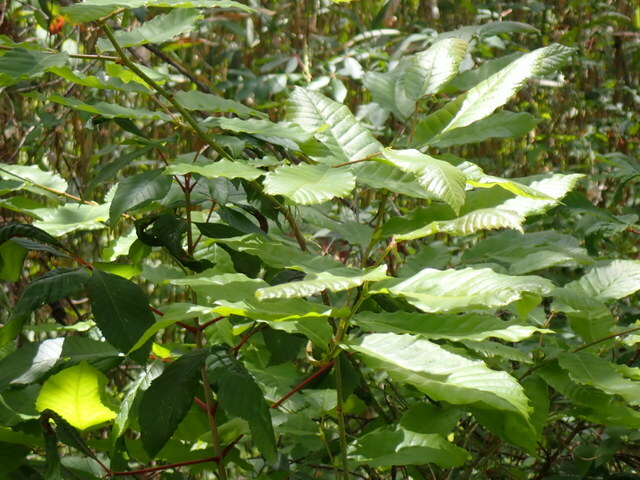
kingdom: Plantae
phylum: Tracheophyta
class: Magnoliopsida
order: Fagales
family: Fagaceae
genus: Fagus
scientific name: Fagus grandifolia
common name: American beech
